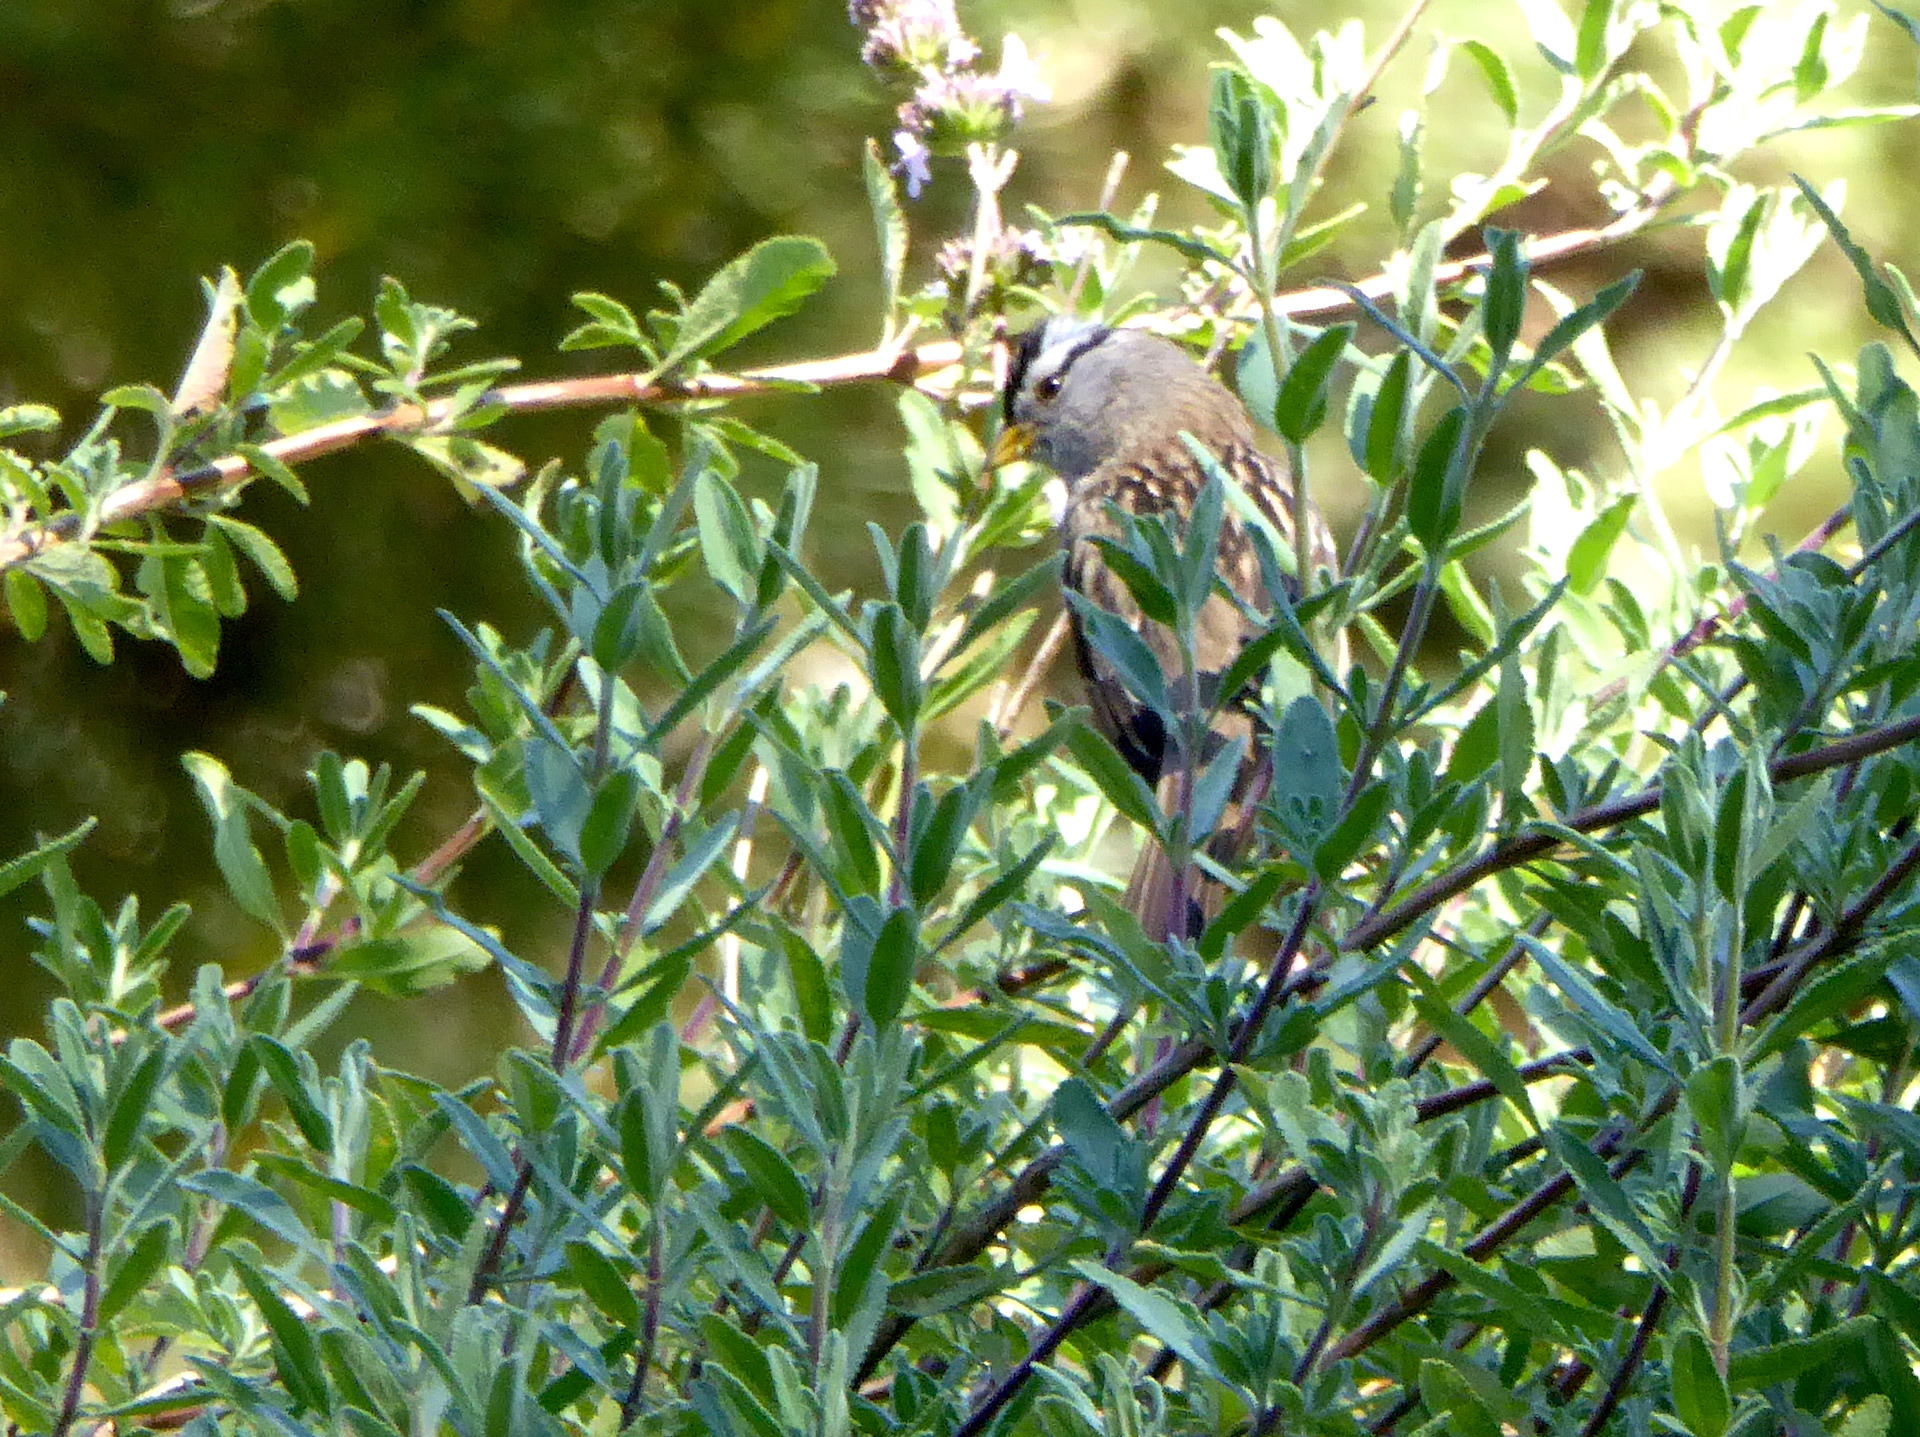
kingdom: Animalia
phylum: Chordata
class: Aves
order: Passeriformes
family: Passerellidae
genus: Zonotrichia
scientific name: Zonotrichia leucophrys
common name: White-crowned sparrow
